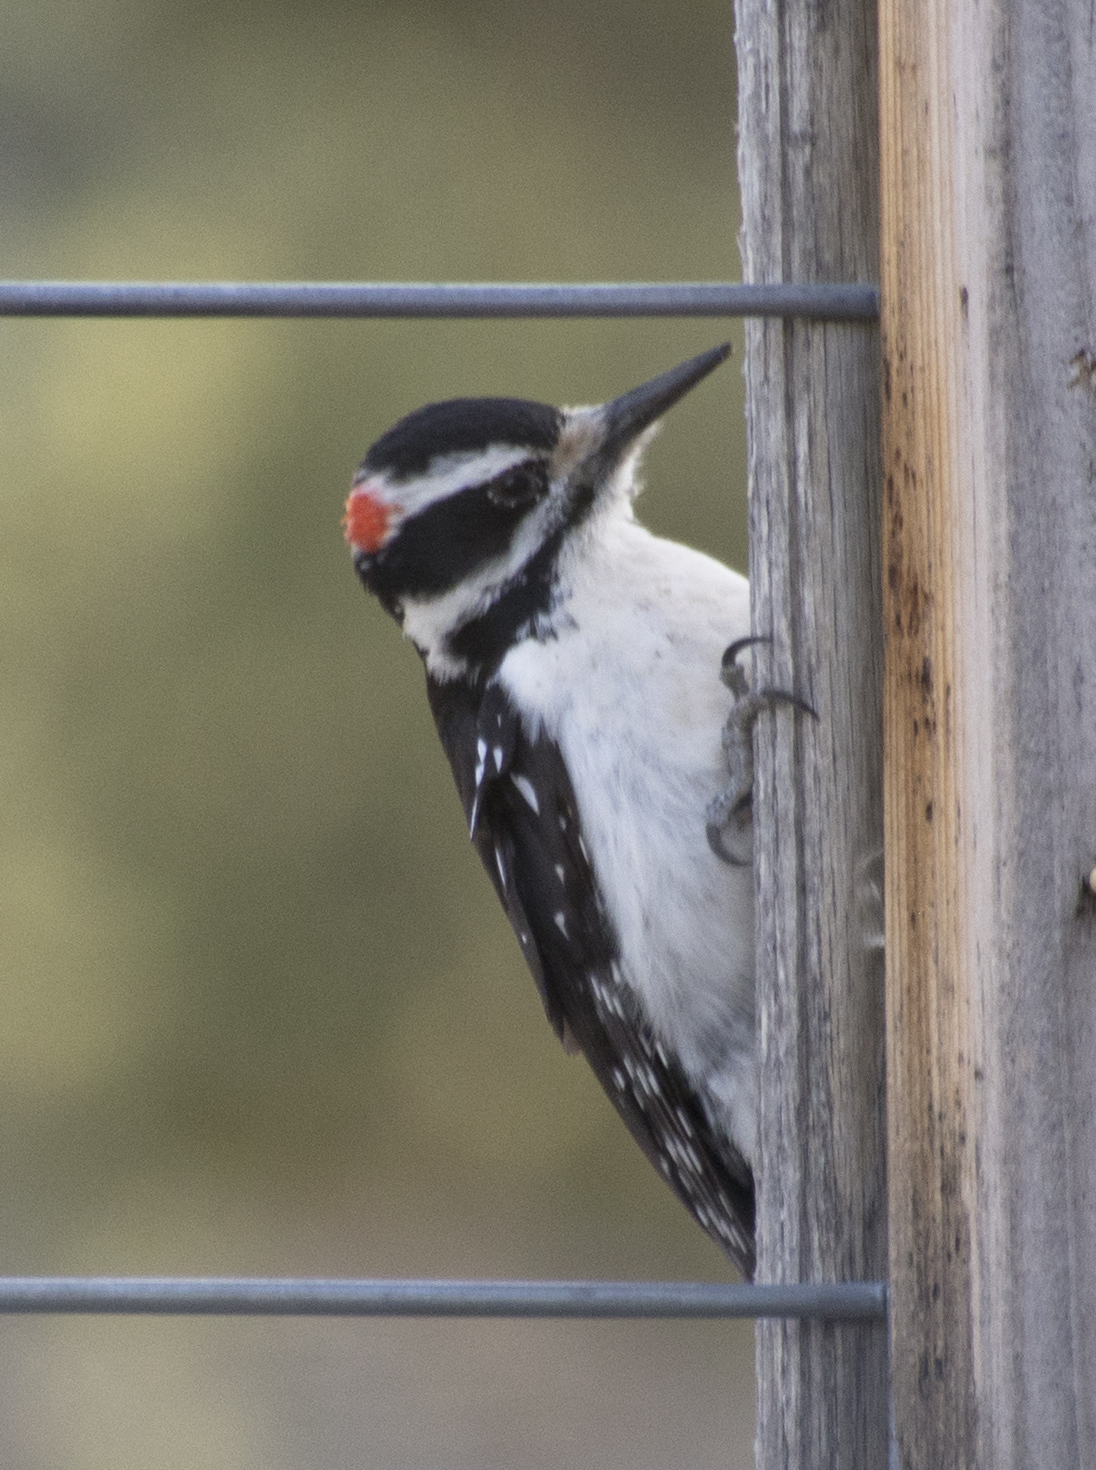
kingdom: Animalia
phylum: Chordata
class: Aves
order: Piciformes
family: Picidae
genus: Leuconotopicus
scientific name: Leuconotopicus villosus
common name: Hairy woodpecker
